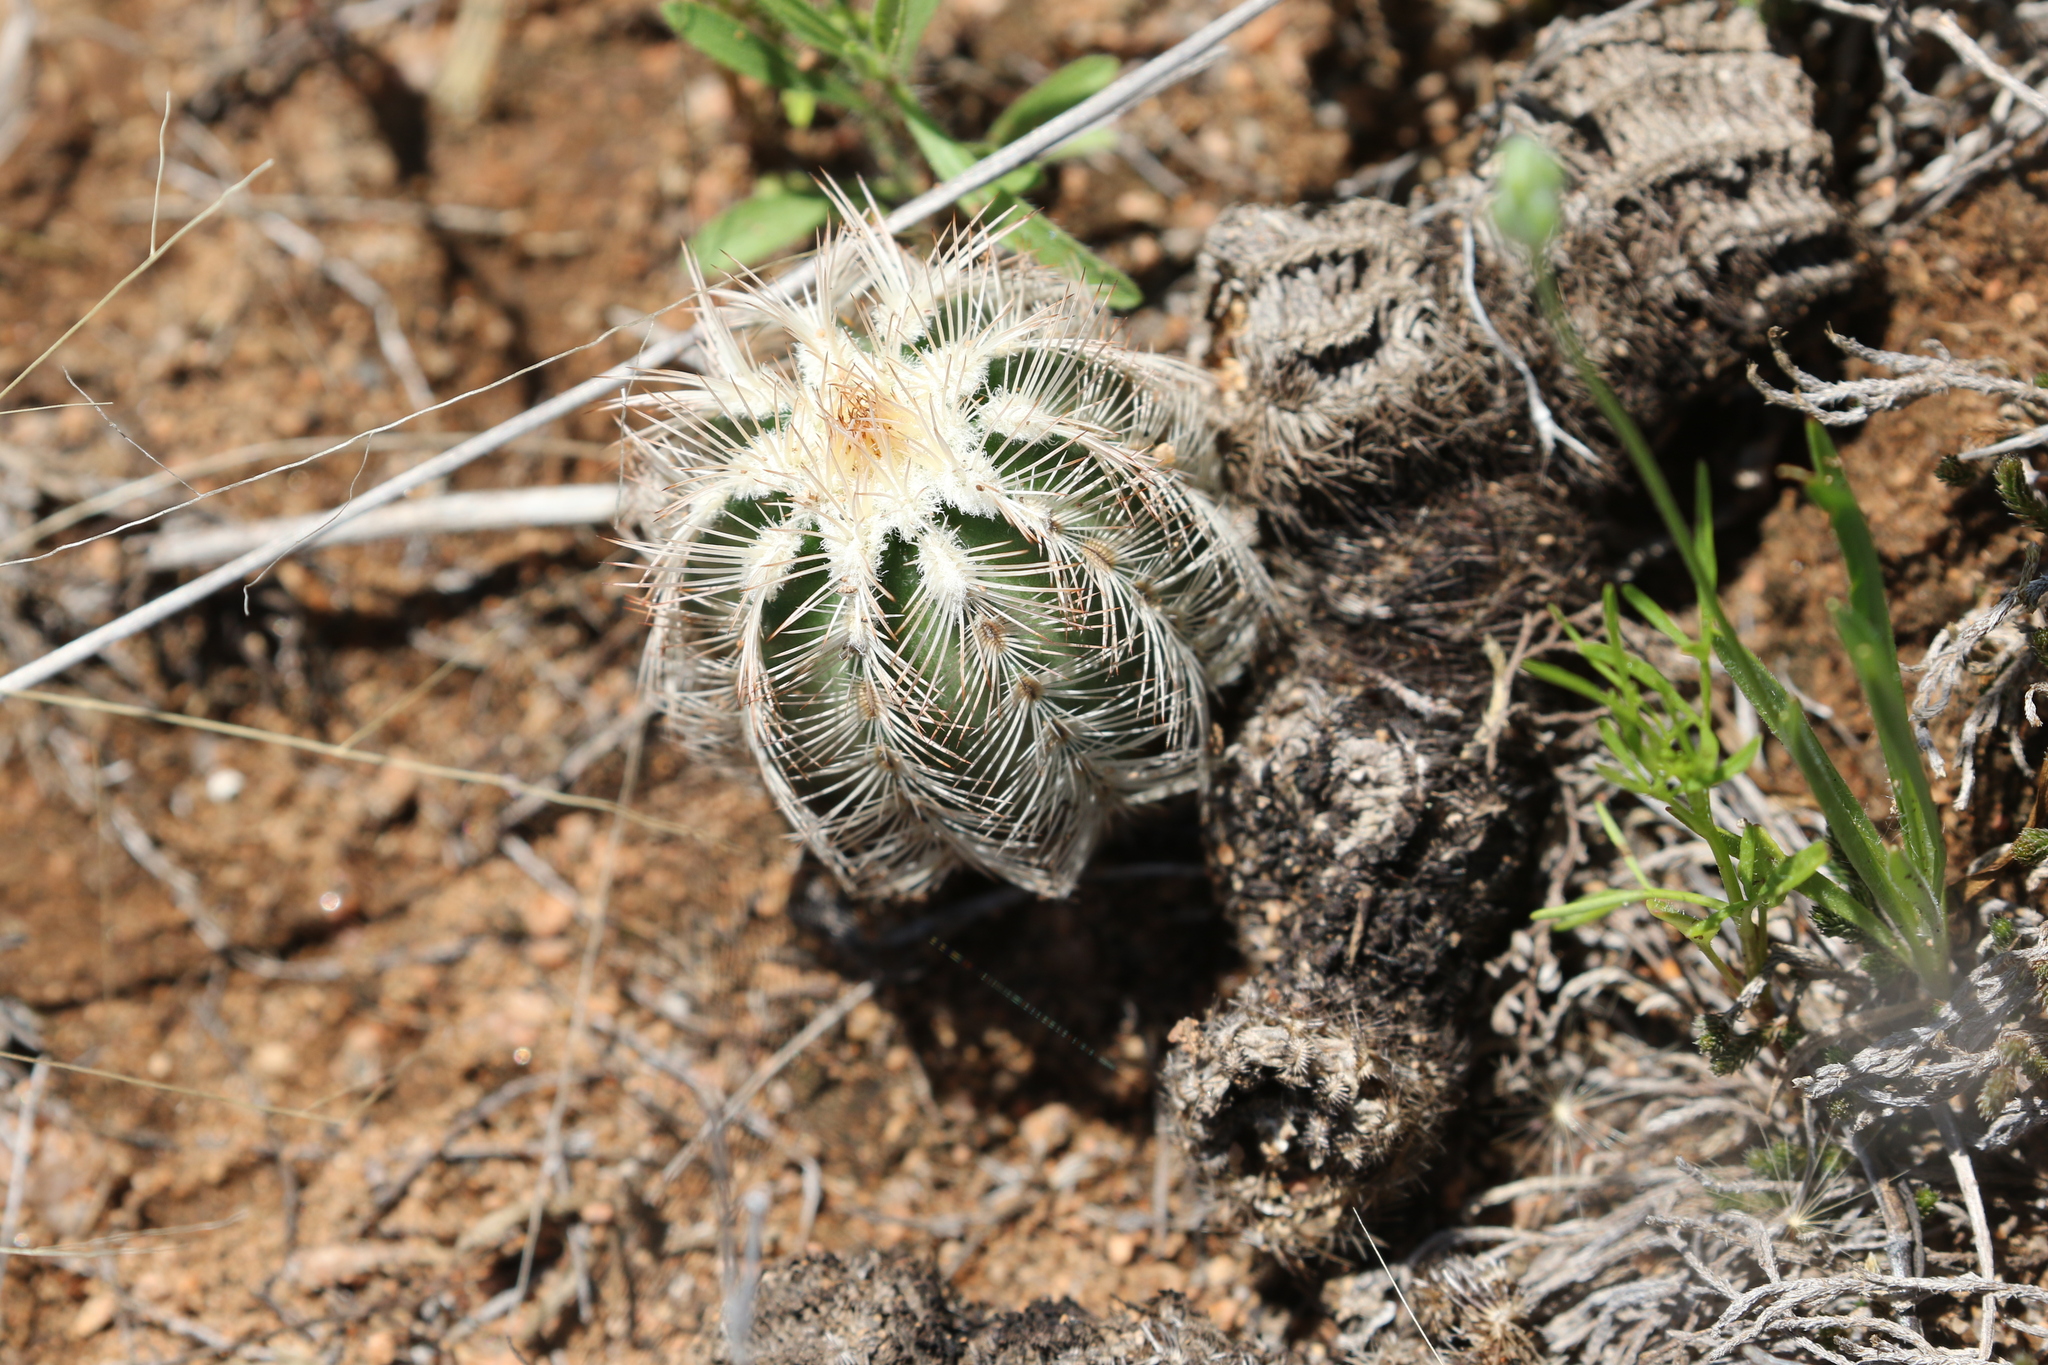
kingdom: Plantae
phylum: Tracheophyta
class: Magnoliopsida
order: Caryophyllales
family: Cactaceae
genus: Echinocereus
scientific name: Echinocereus reichenbachii
